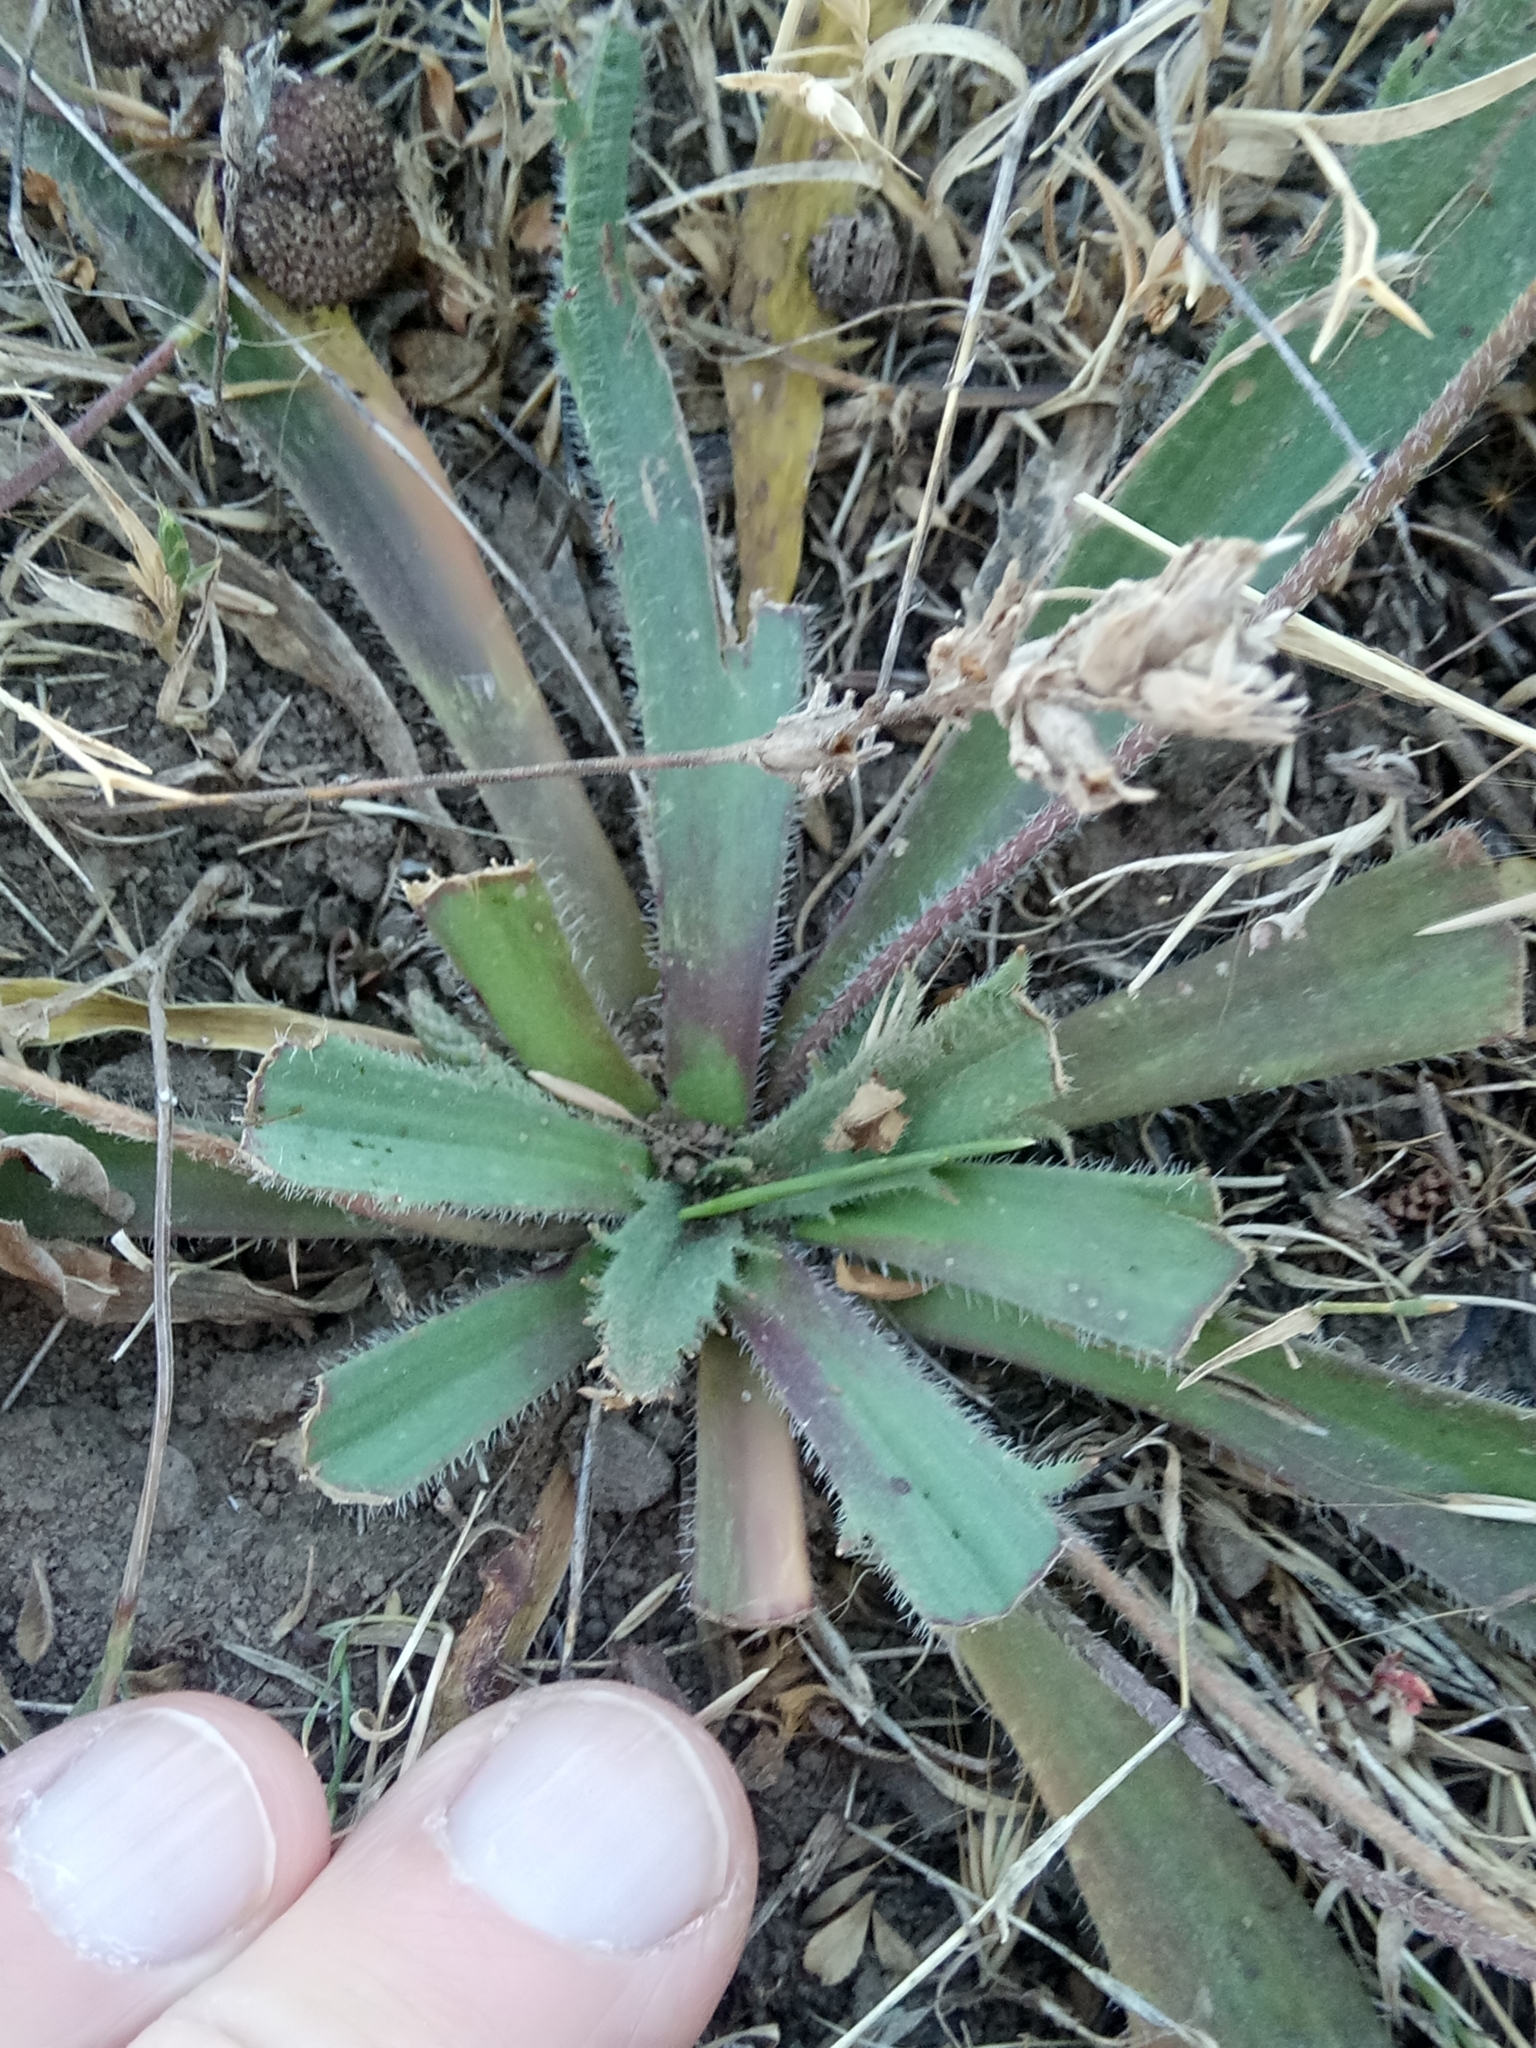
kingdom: Plantae
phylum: Tracheophyta
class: Magnoliopsida
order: Lamiales
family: Plantaginaceae
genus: Plantago
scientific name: Plantago serraria
